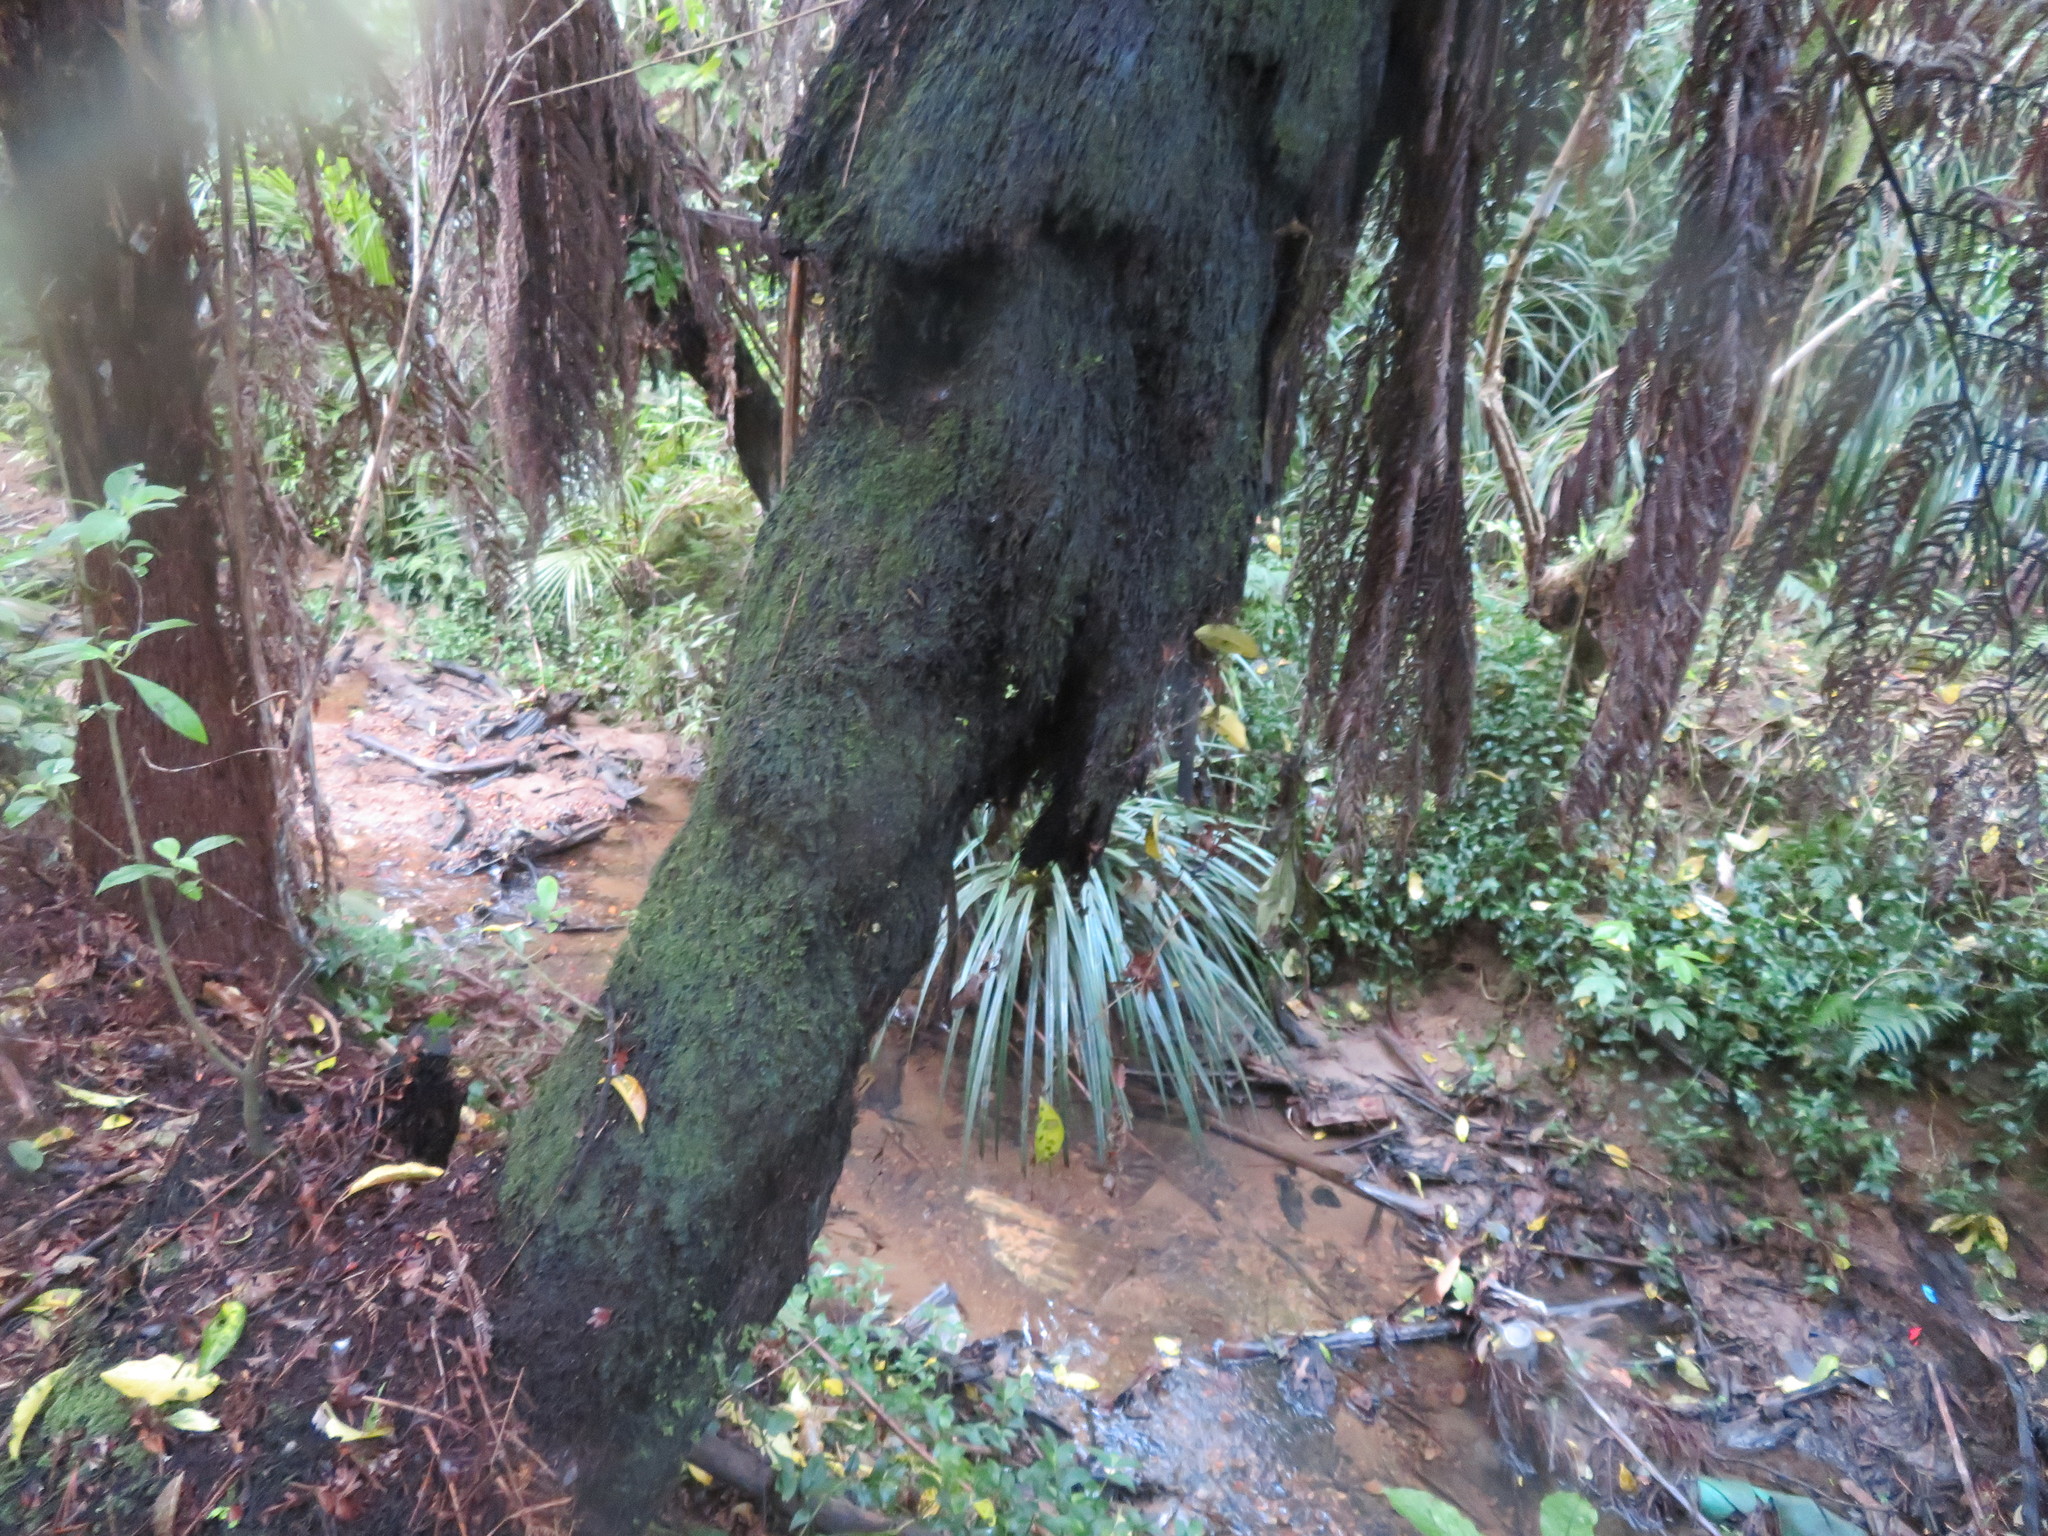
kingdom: Plantae
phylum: Tracheophyta
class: Polypodiopsida
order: Cyatheales
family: Cyatheaceae
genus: Sphaeropteris
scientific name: Sphaeropteris medullaris
